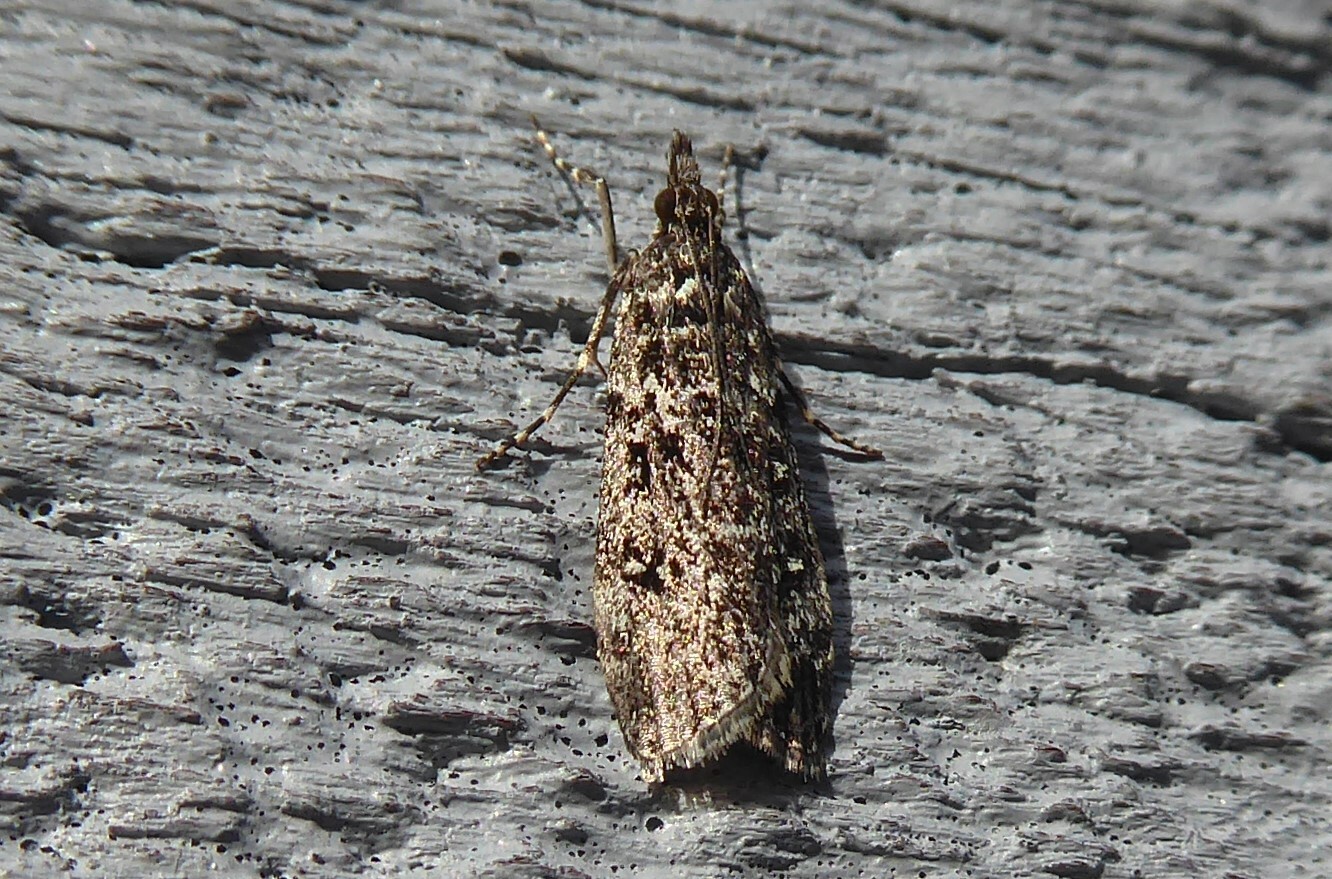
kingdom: Animalia
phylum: Arthropoda
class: Insecta
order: Lepidoptera
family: Crambidae
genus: Eudonia
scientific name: Eudonia philerga
